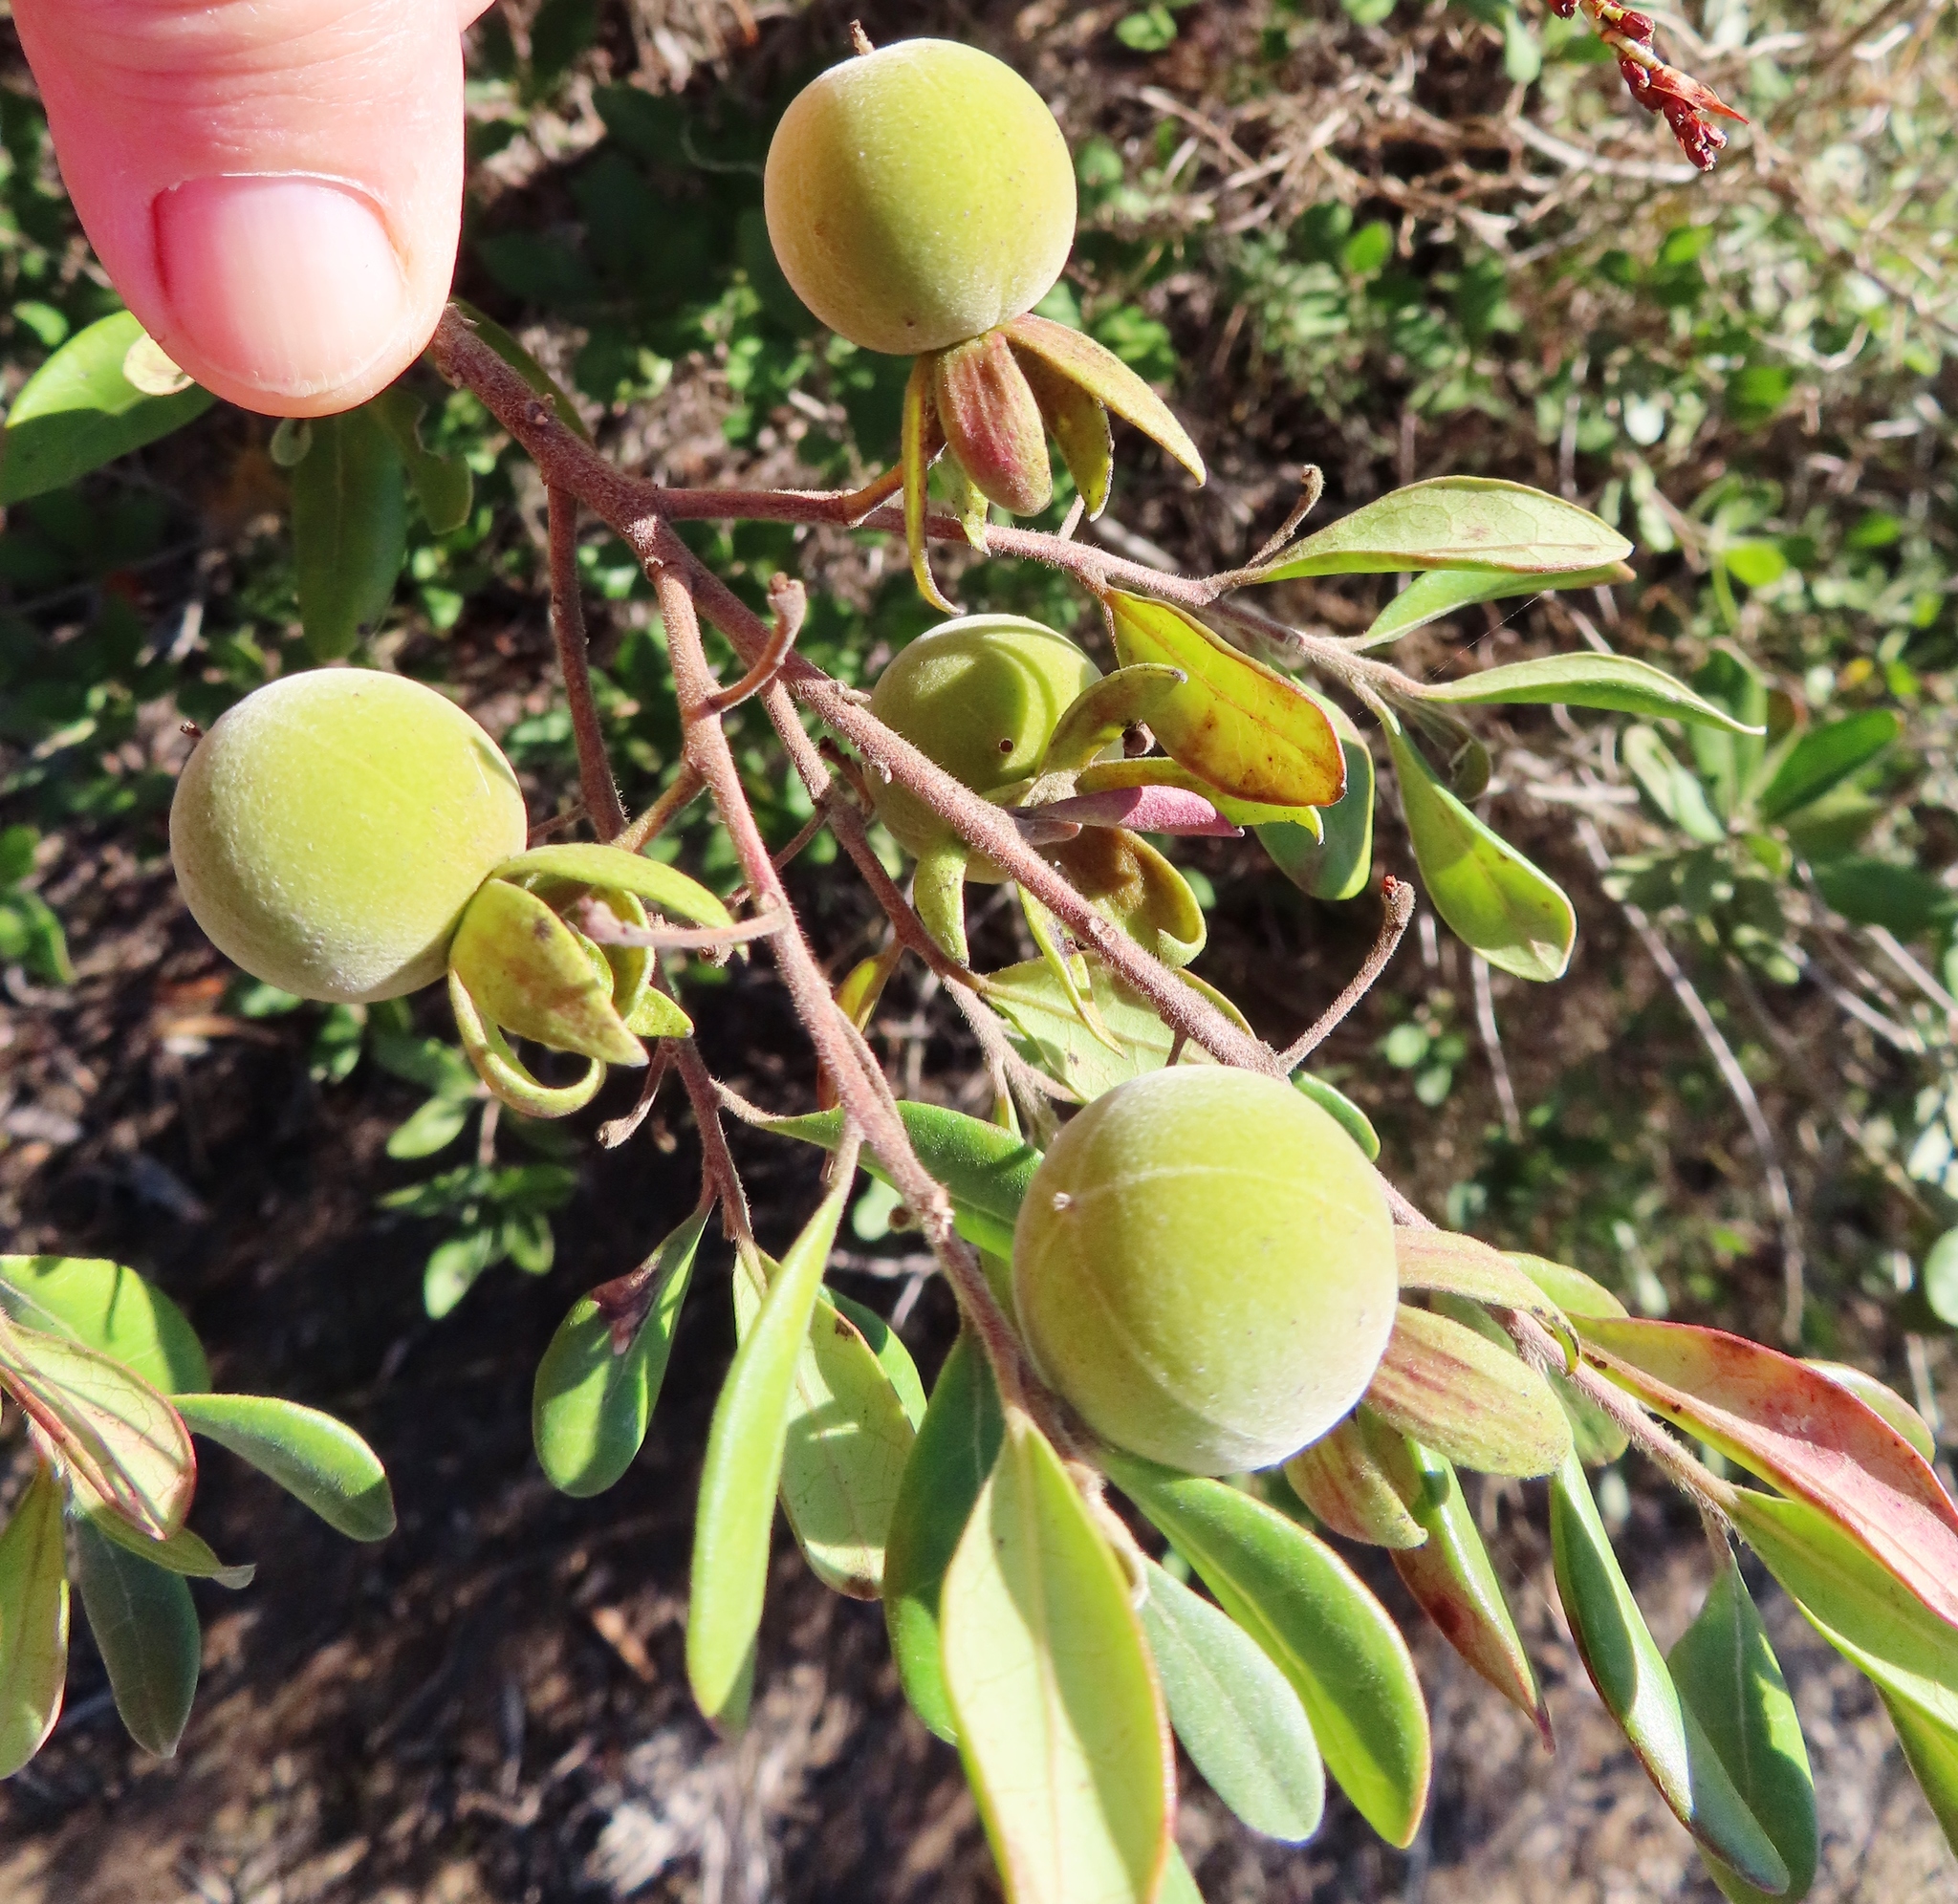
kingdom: Plantae
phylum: Tracheophyta
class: Magnoliopsida
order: Ericales
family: Ebenaceae
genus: Diospyros
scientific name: Diospyros dichrophylla
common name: Common star-apple
